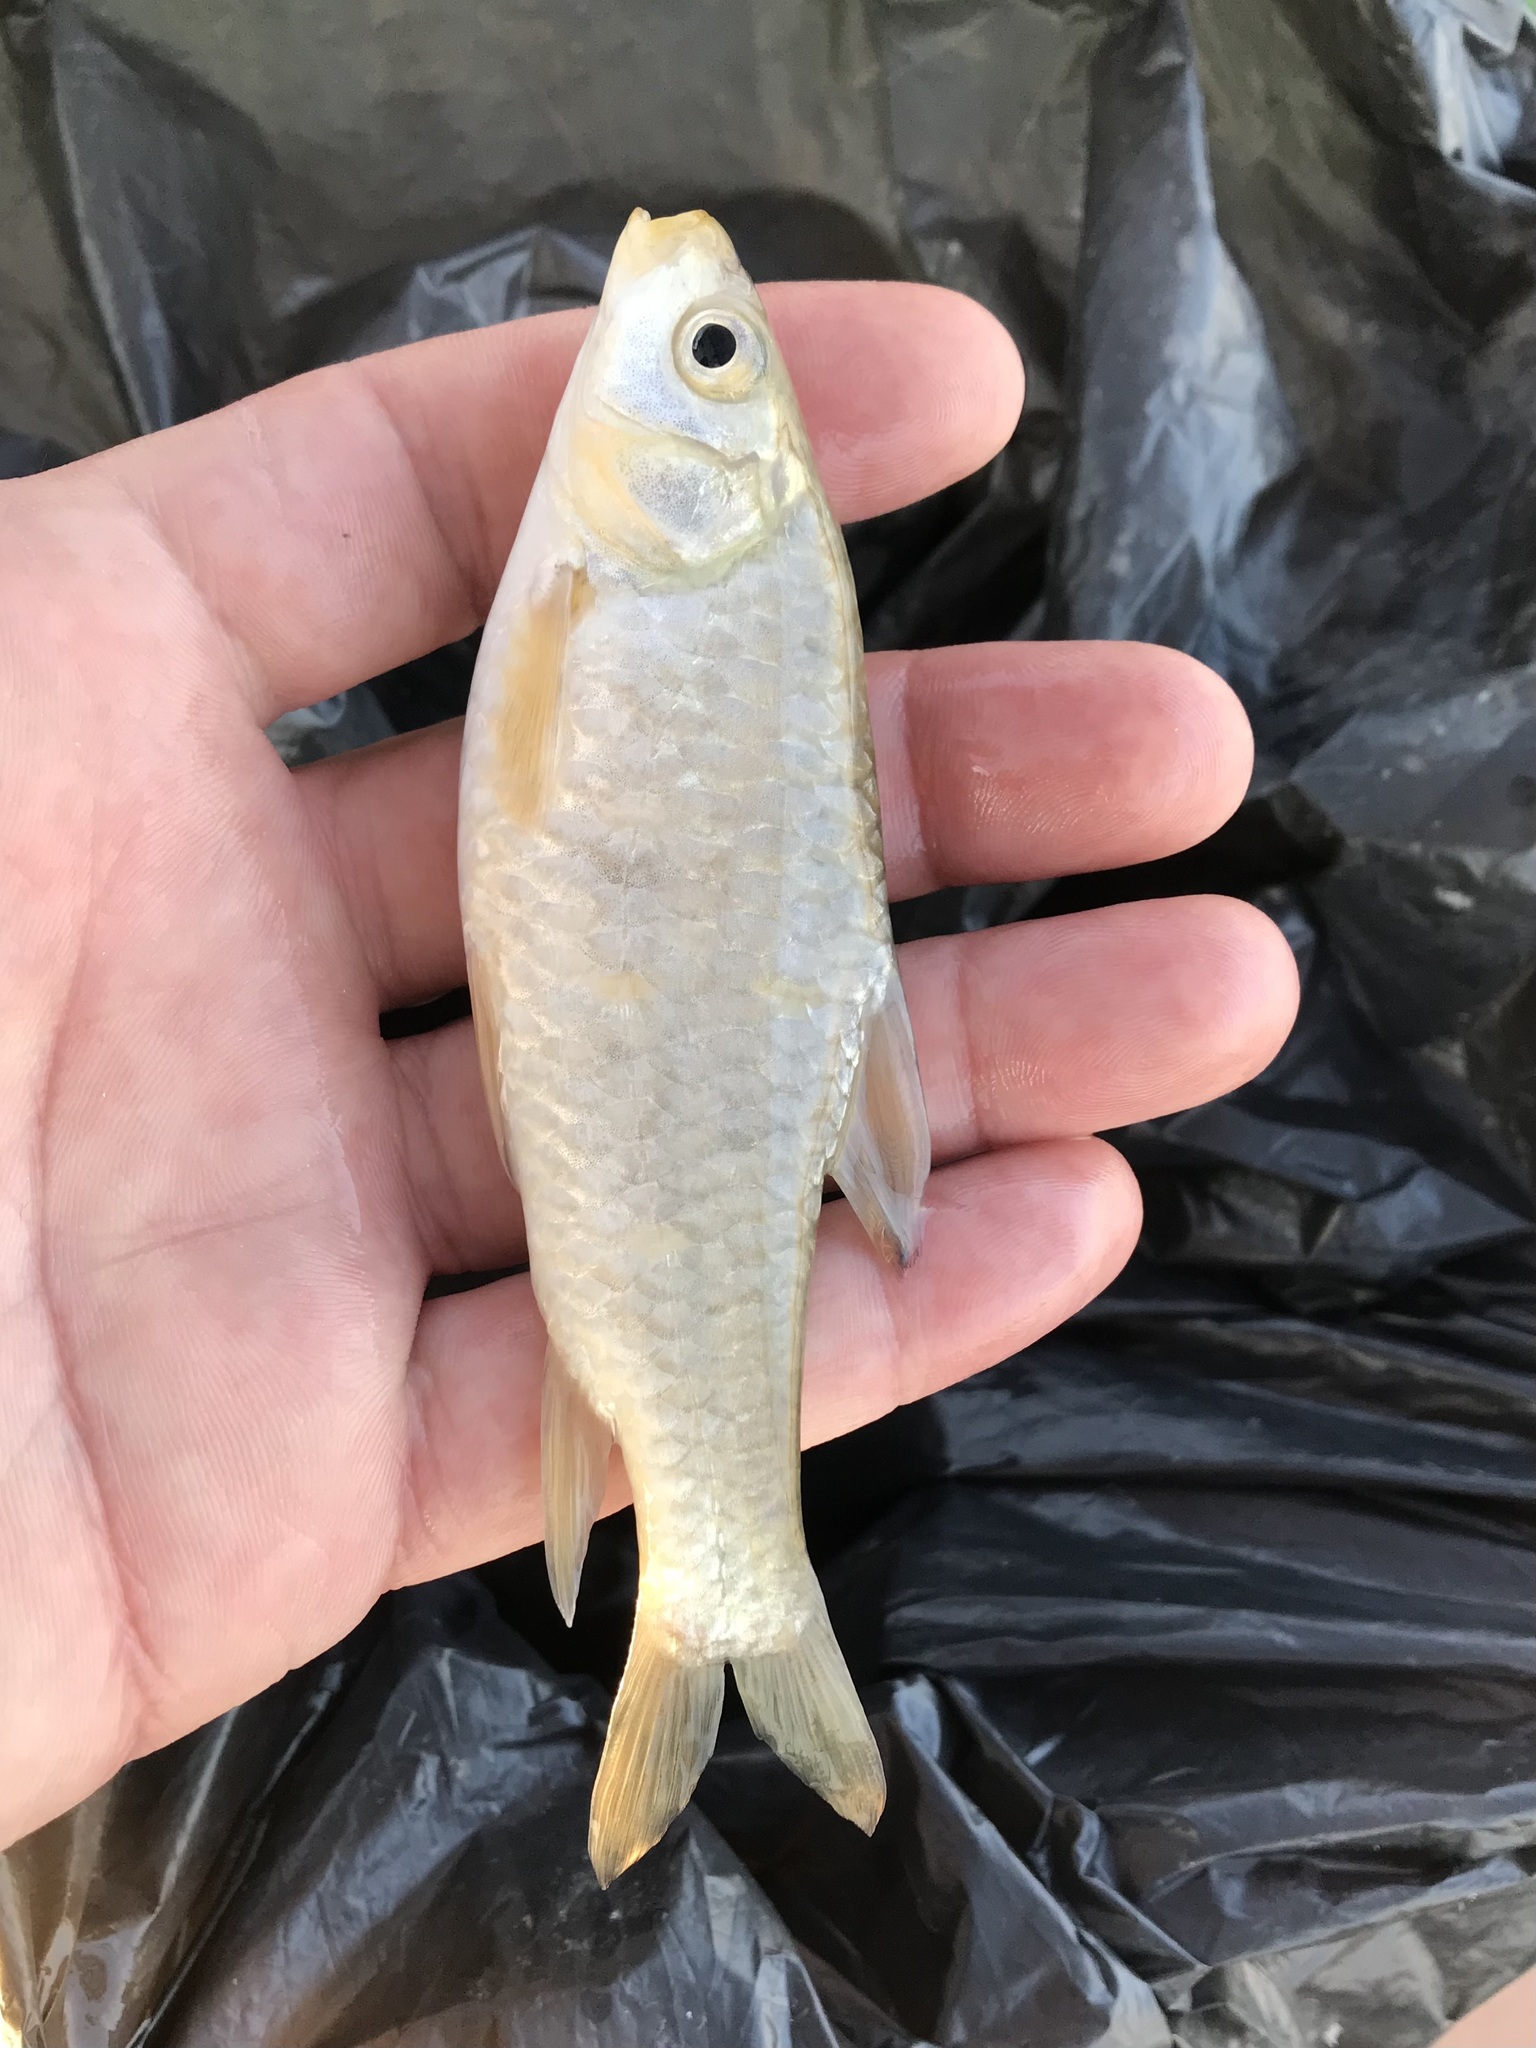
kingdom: Animalia
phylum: Chordata
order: Cypriniformes
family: Cyprinidae
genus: Carasobarbus
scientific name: Carasobarbus luteus
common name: Mesopotamian himri
